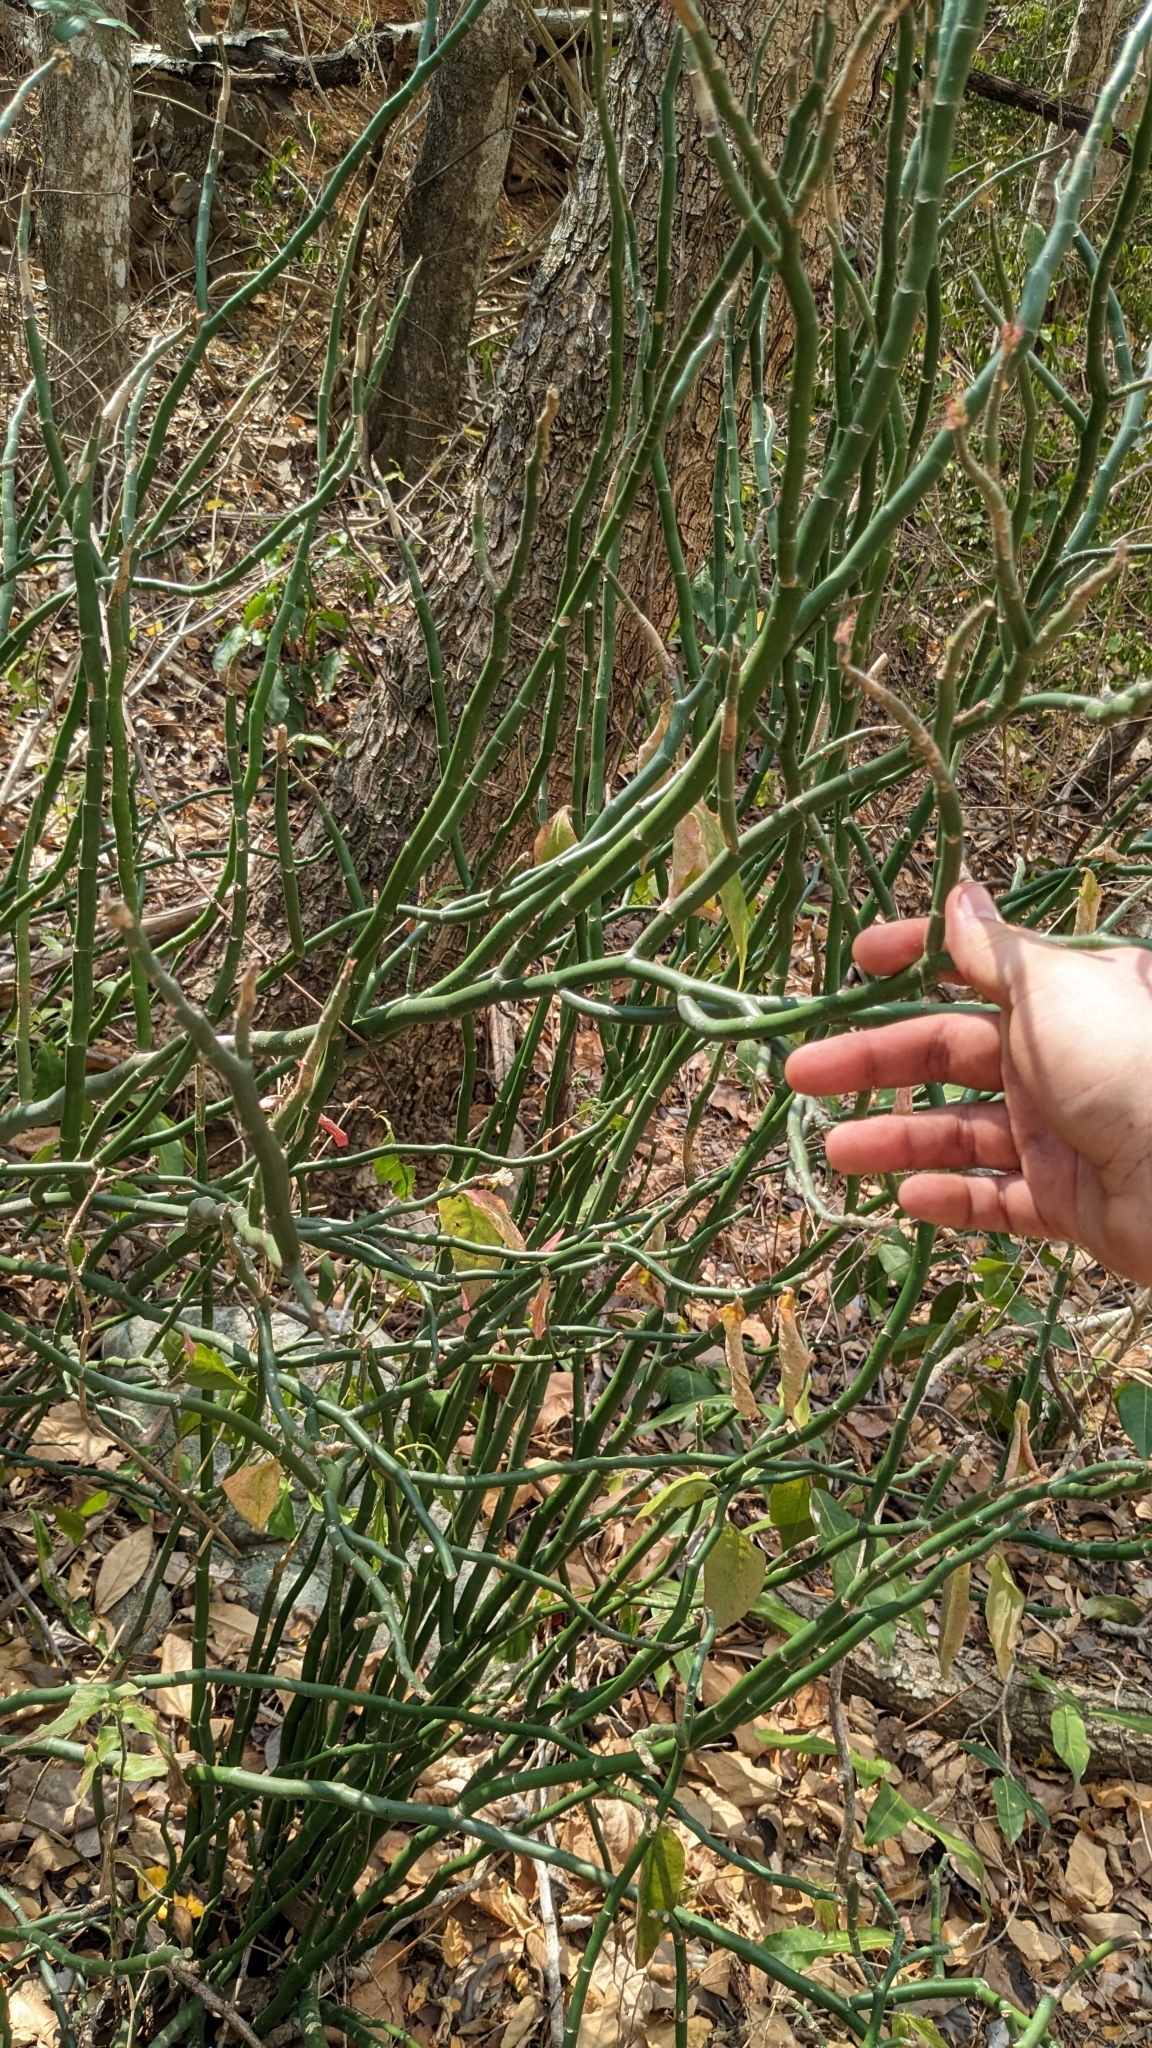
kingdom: Plantae
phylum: Tracheophyta
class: Magnoliopsida
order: Malpighiales
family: Euphorbiaceae
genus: Euphorbia
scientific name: Euphorbia tithymaloides
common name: Slipperplant
